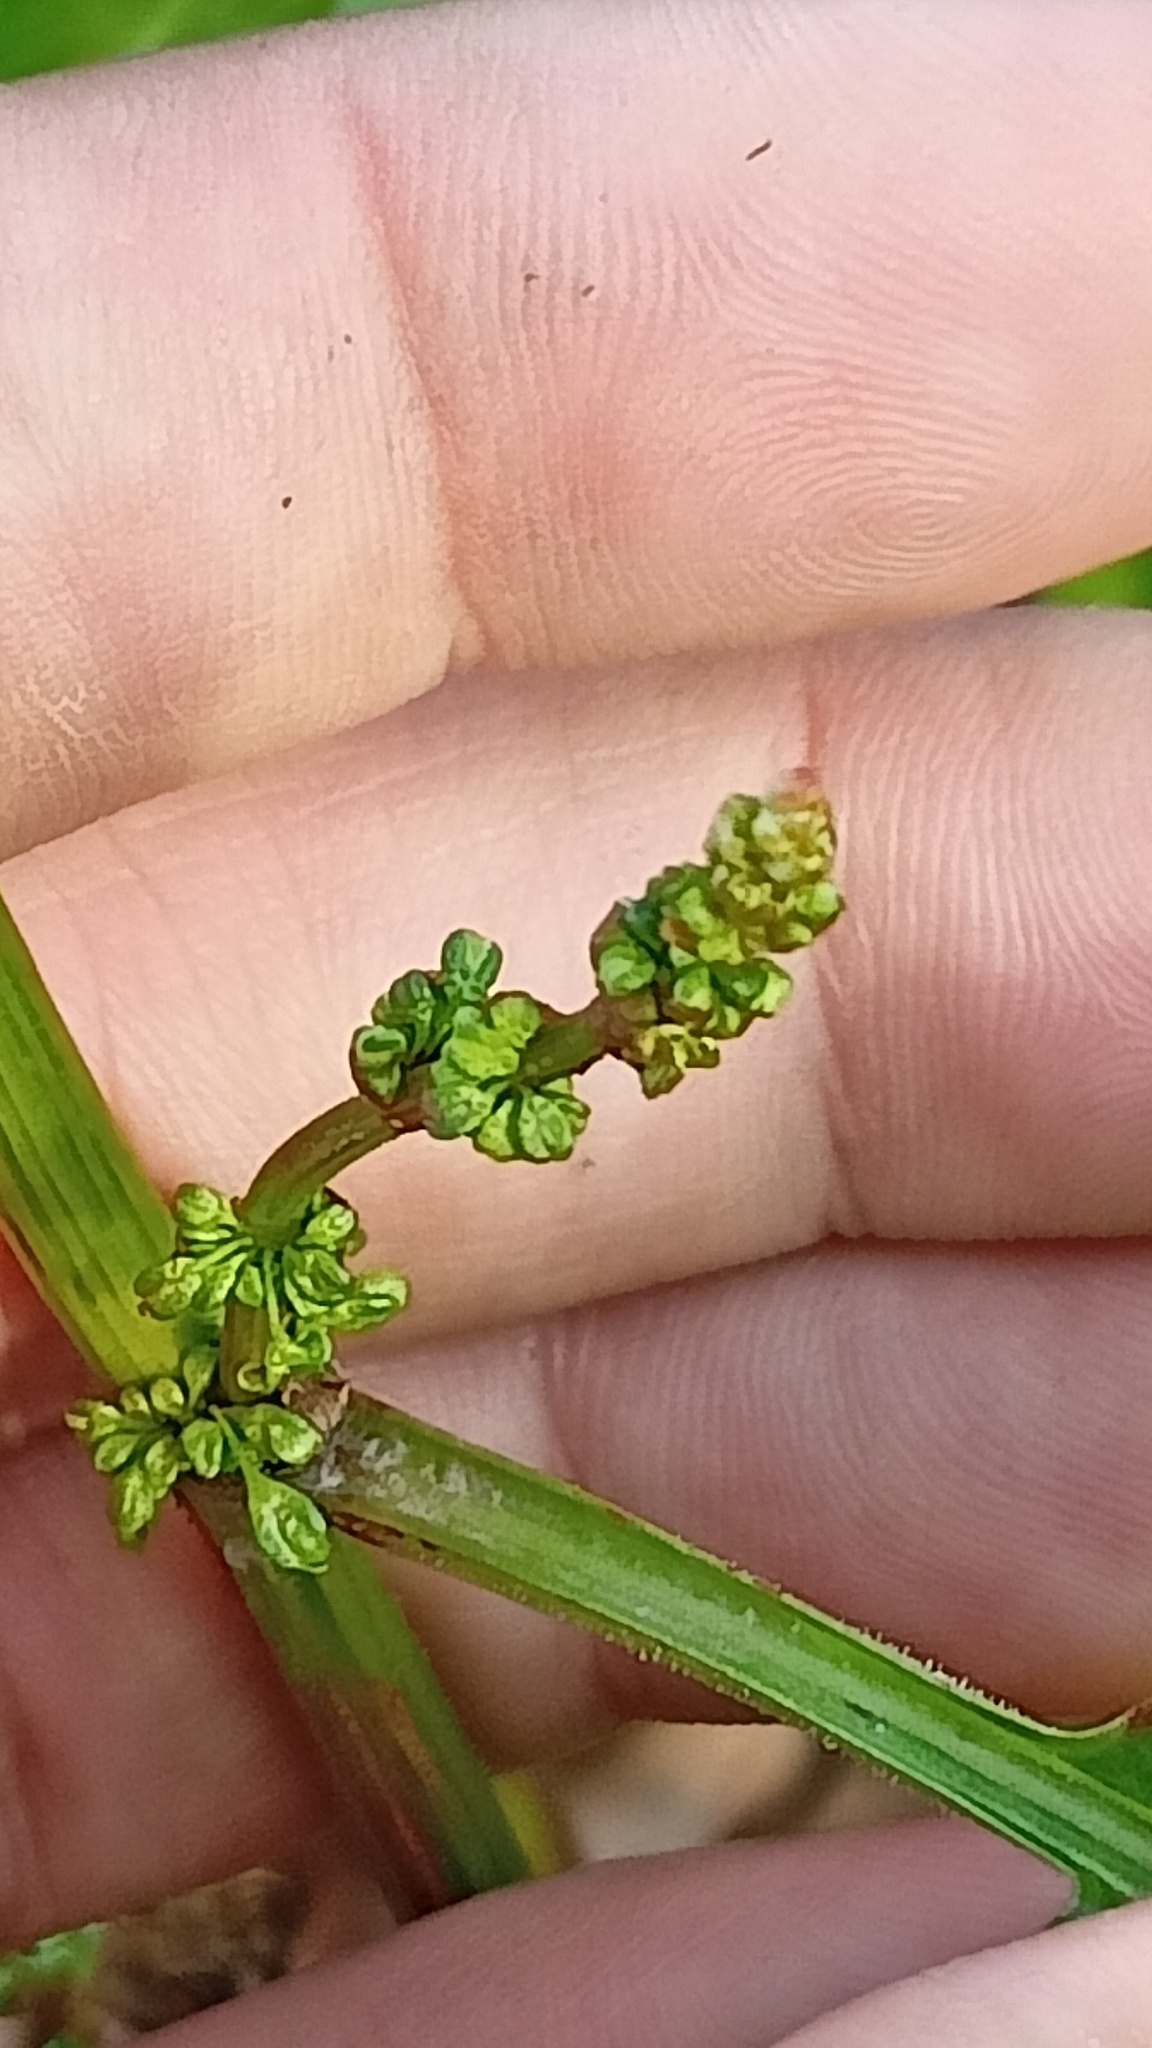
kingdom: Plantae
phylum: Tracheophyta
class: Magnoliopsida
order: Caryophyllales
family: Polygonaceae
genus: Rumex
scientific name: Rumex obtusifolius
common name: Bitter dock
